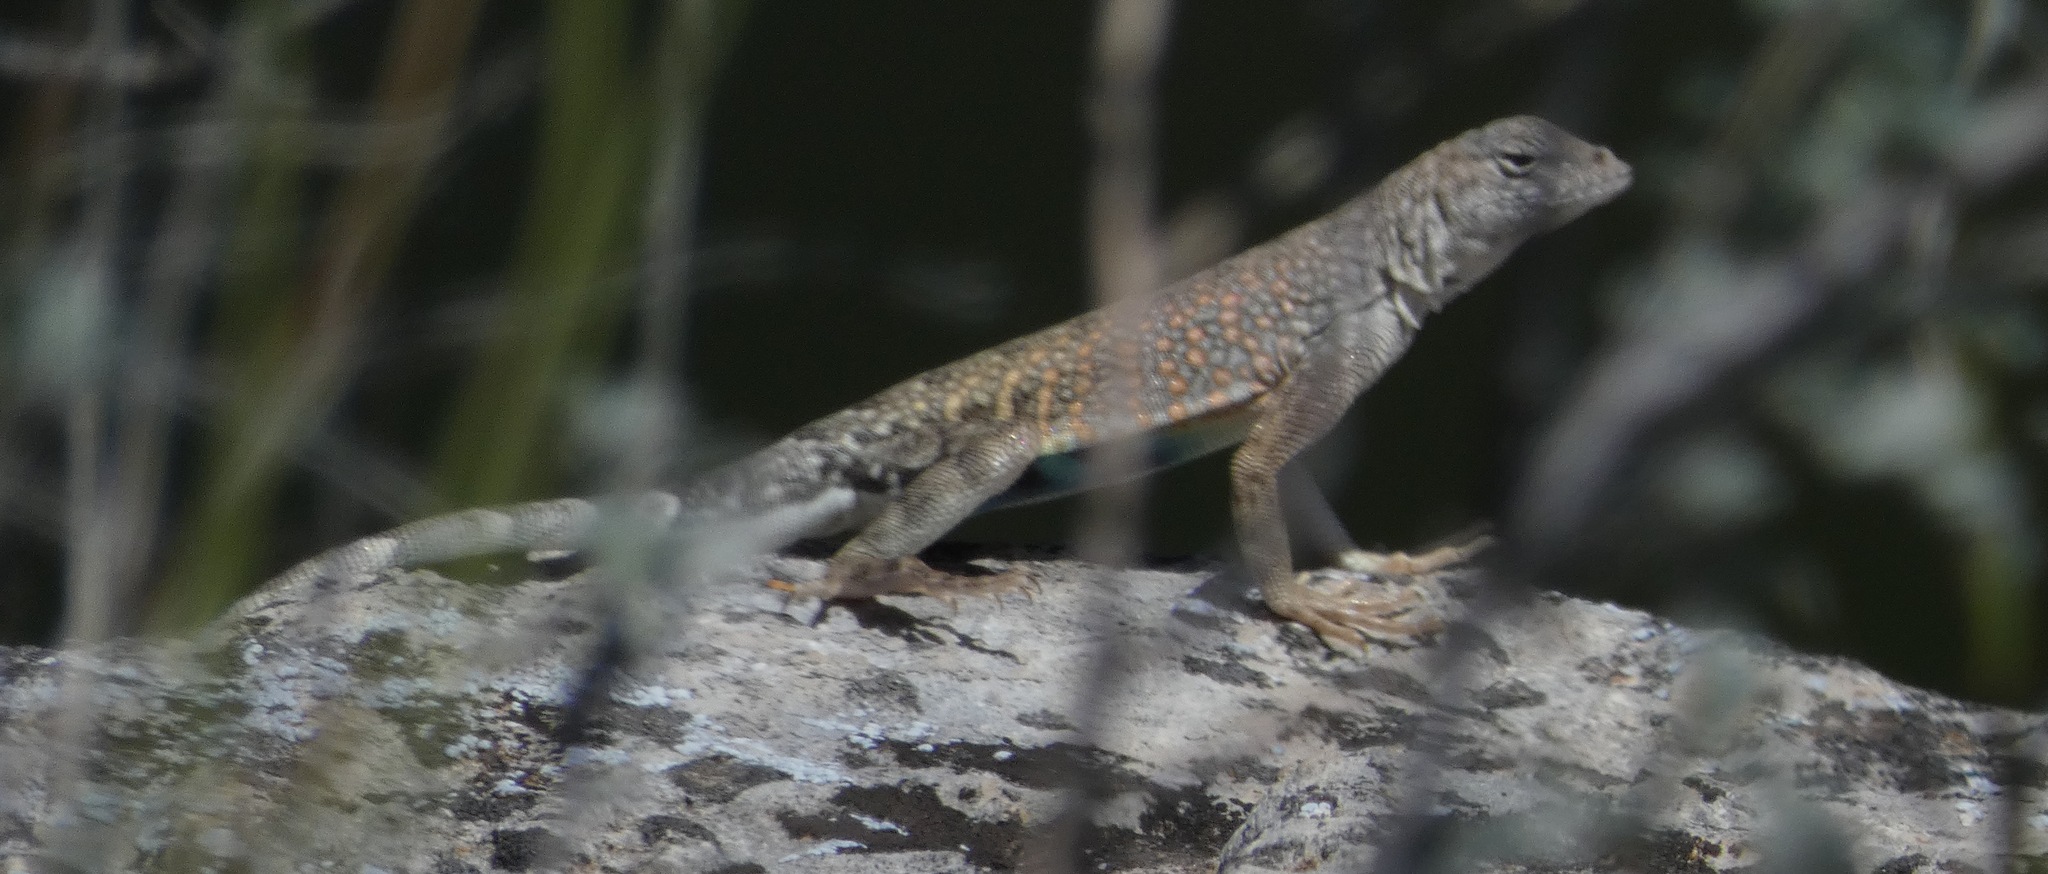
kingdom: Animalia
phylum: Chordata
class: Squamata
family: Phrynosomatidae
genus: Cophosaurus
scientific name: Cophosaurus texanus
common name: Greater earless lizard
